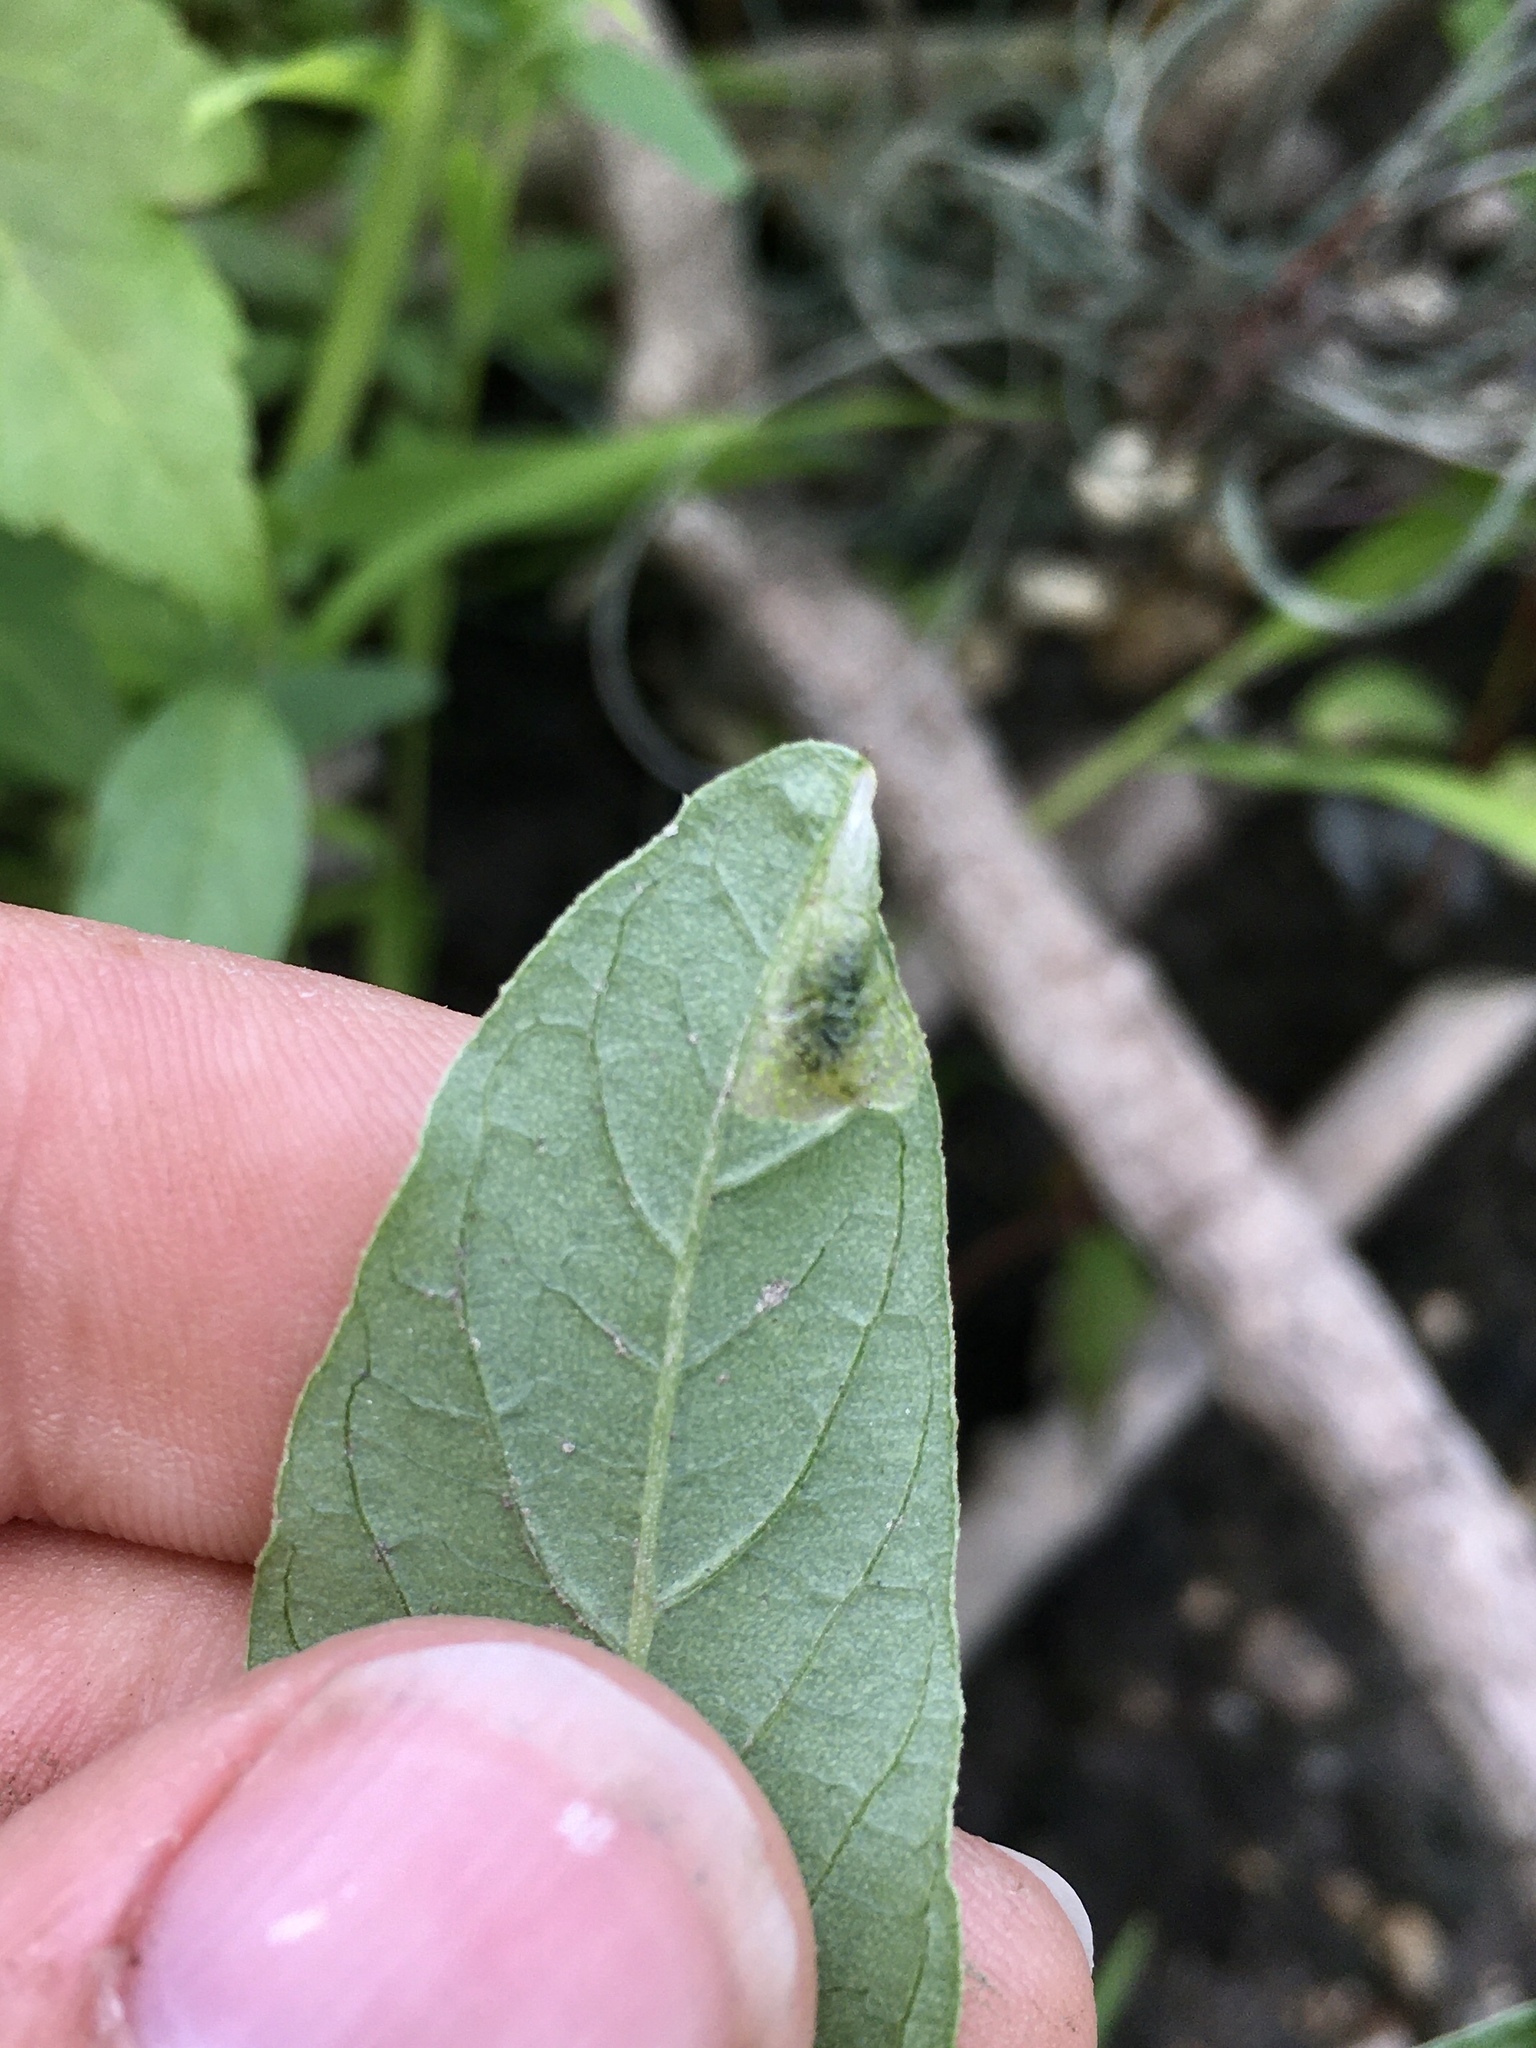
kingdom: Animalia
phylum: Arthropoda
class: Insecta
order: Diptera
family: Anthomyiidae
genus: Pegomya
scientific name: Pegomya wygodzinskyi
